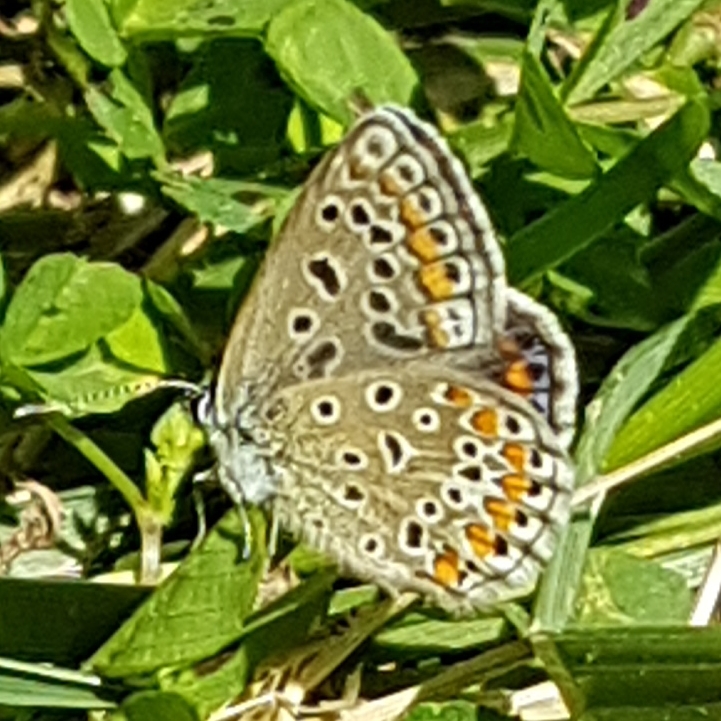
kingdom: Animalia
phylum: Arthropoda
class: Insecta
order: Lepidoptera
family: Lycaenidae
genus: Polyommatus
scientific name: Polyommatus icarus
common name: Common blue
